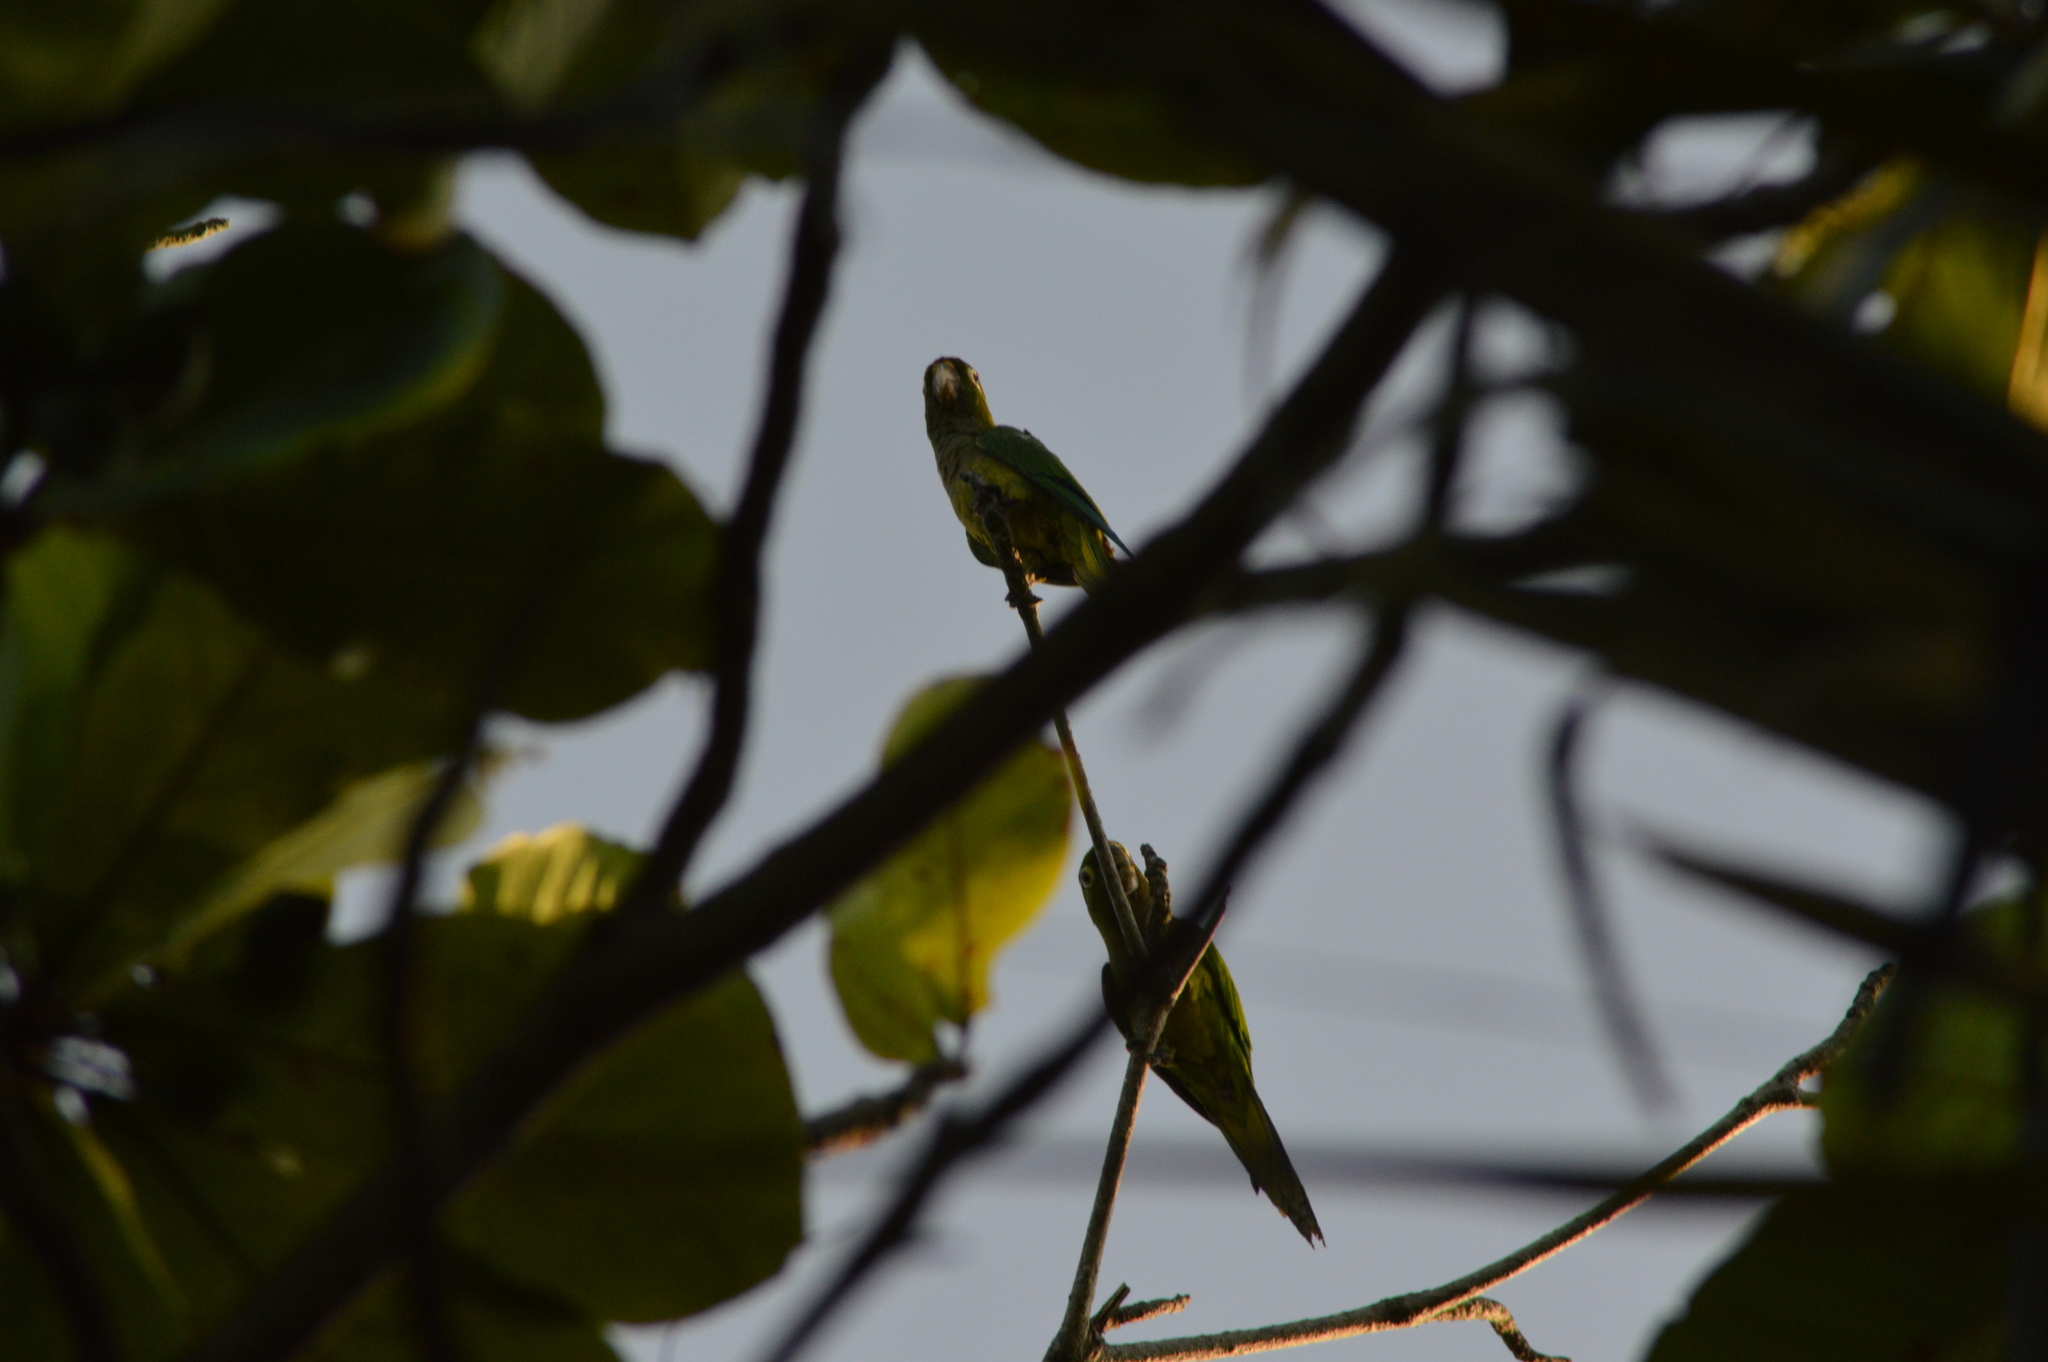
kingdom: Animalia
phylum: Chordata
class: Aves
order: Psittaciformes
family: Psittacidae
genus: Aratinga
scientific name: Aratinga nana
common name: Olive-throated parakeet
